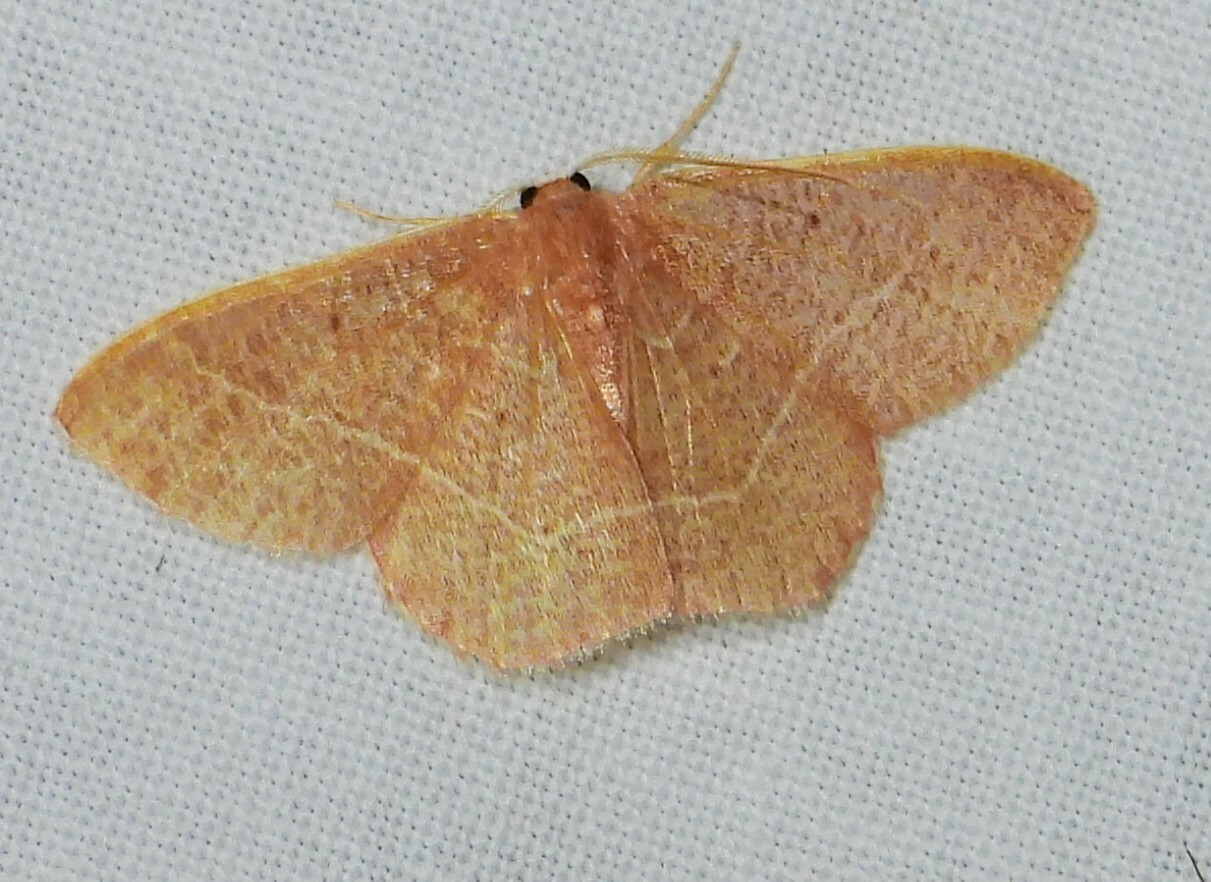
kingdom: Animalia
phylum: Arthropoda
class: Insecta
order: Lepidoptera
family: Geometridae
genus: Nemoria
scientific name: Nemoria bistriaria
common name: Red-fringed emerald
